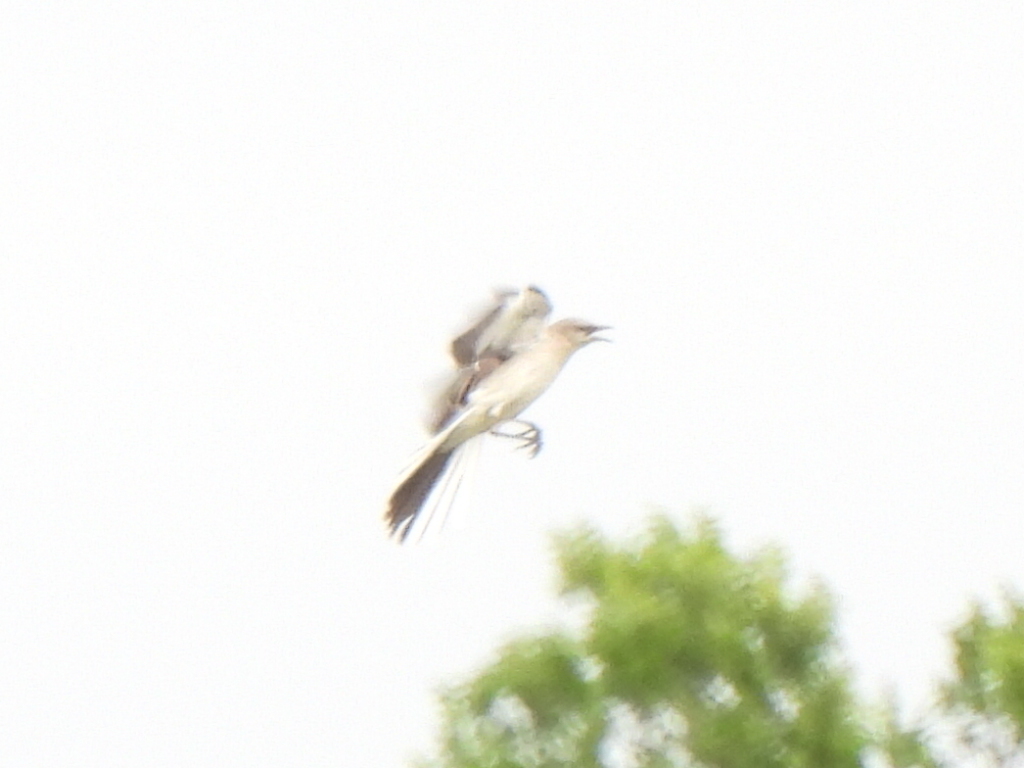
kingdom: Animalia
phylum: Chordata
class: Aves
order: Passeriformes
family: Mimidae
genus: Mimus
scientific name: Mimus polyglottos
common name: Northern mockingbird
